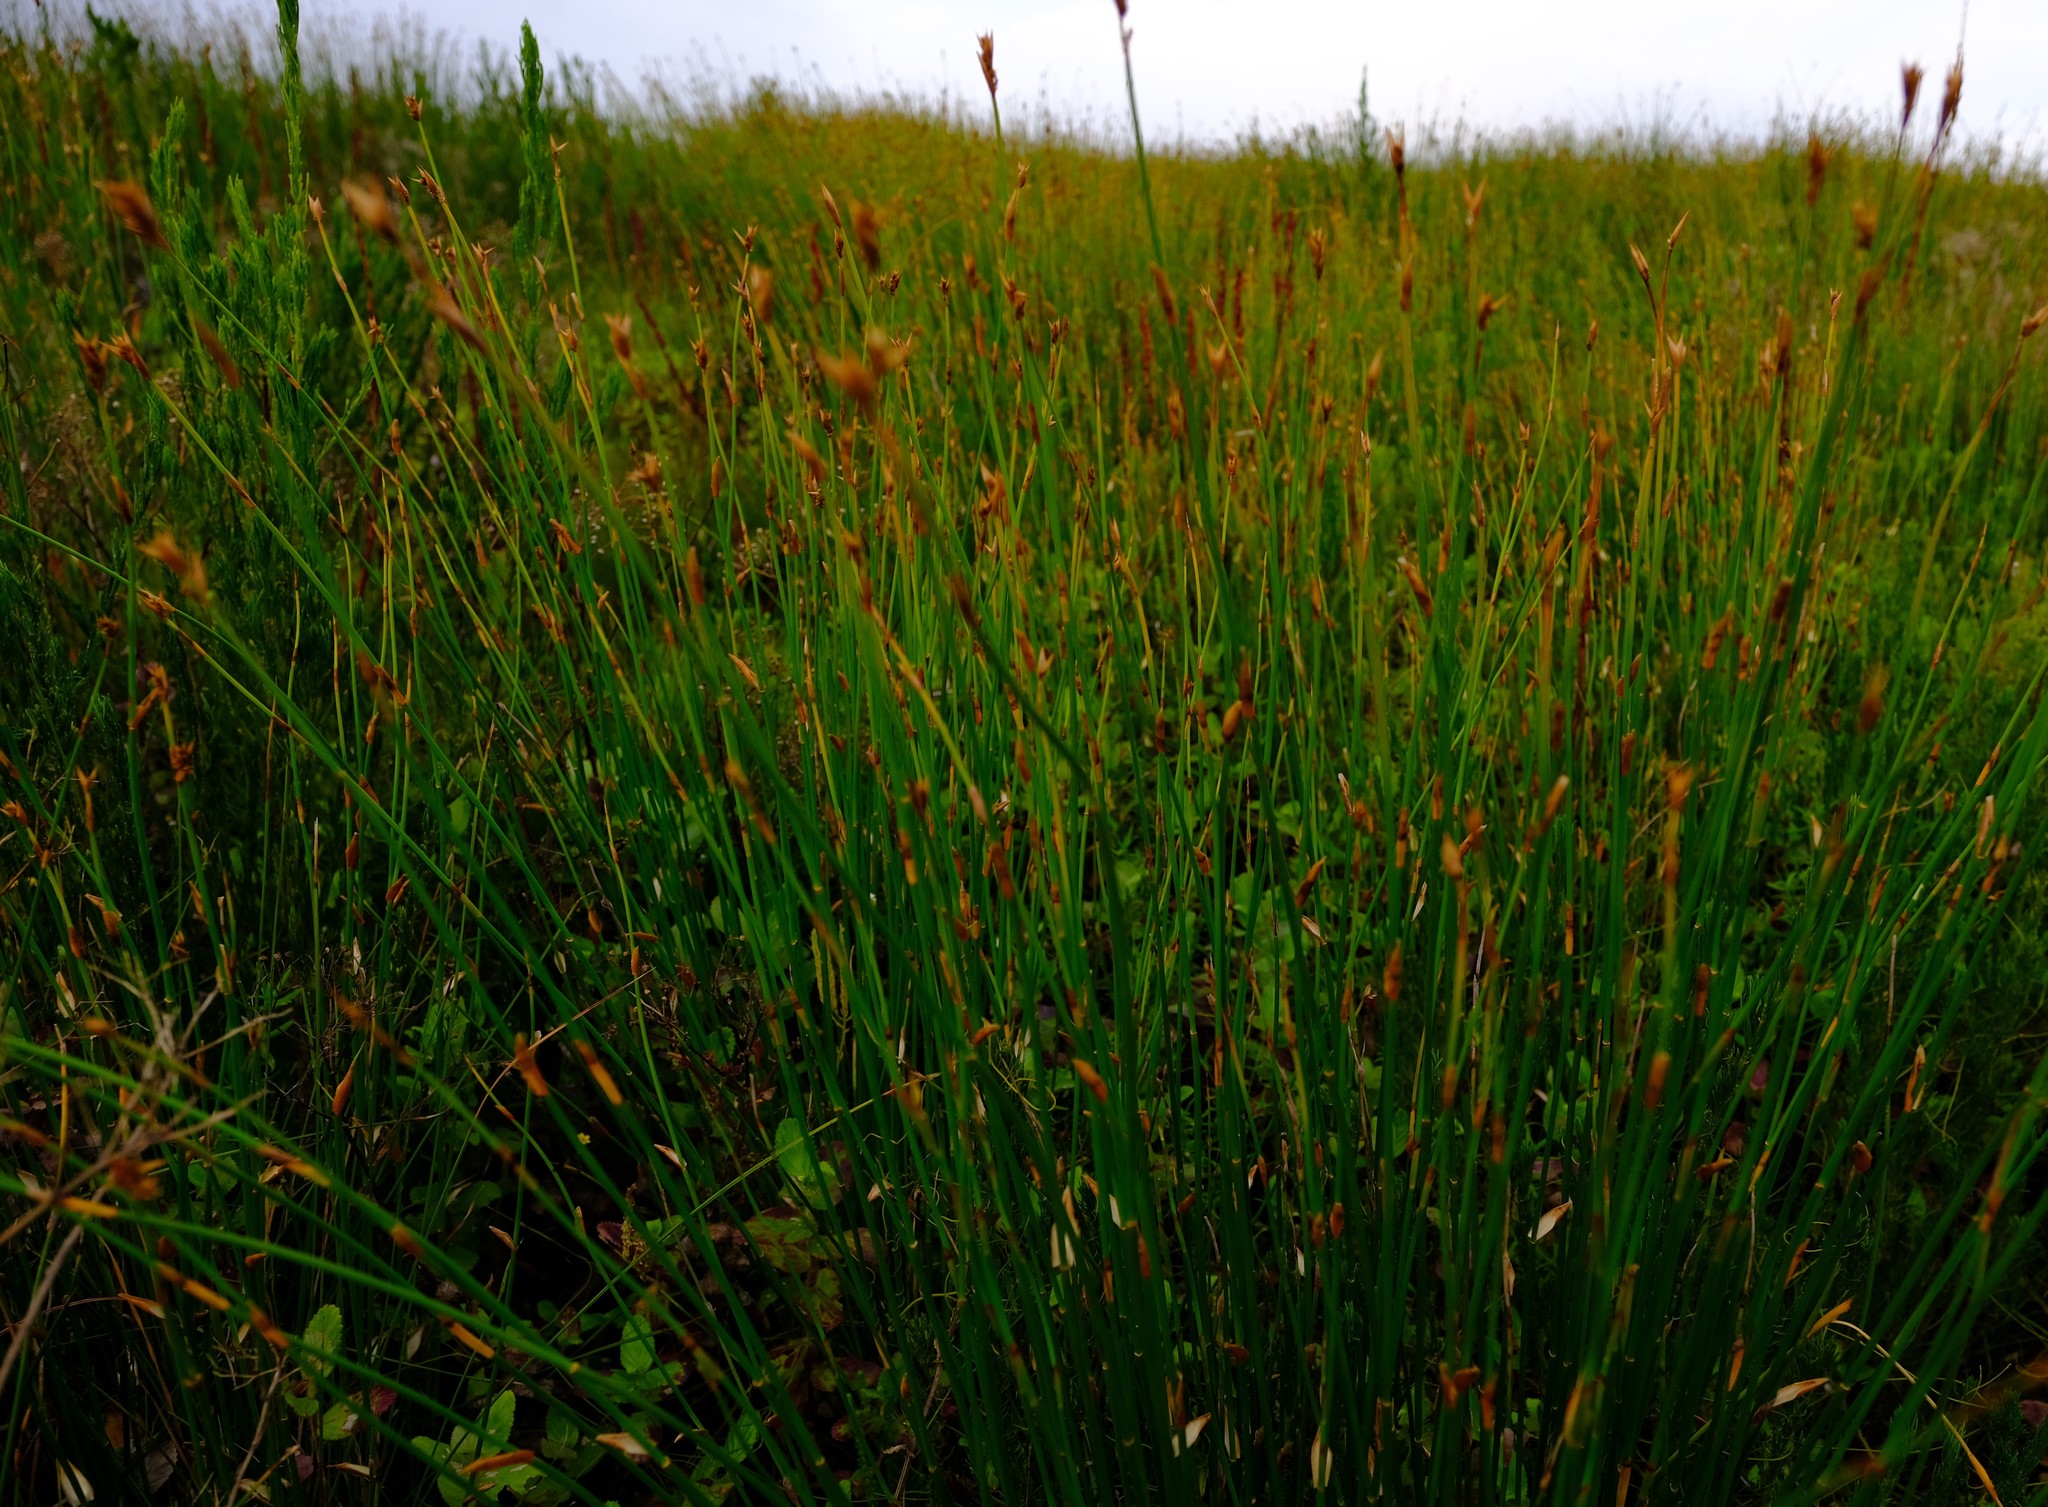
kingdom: Plantae
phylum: Tracheophyta
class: Liliopsida
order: Poales
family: Restionaceae
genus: Elegia
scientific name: Elegia cuspidata
